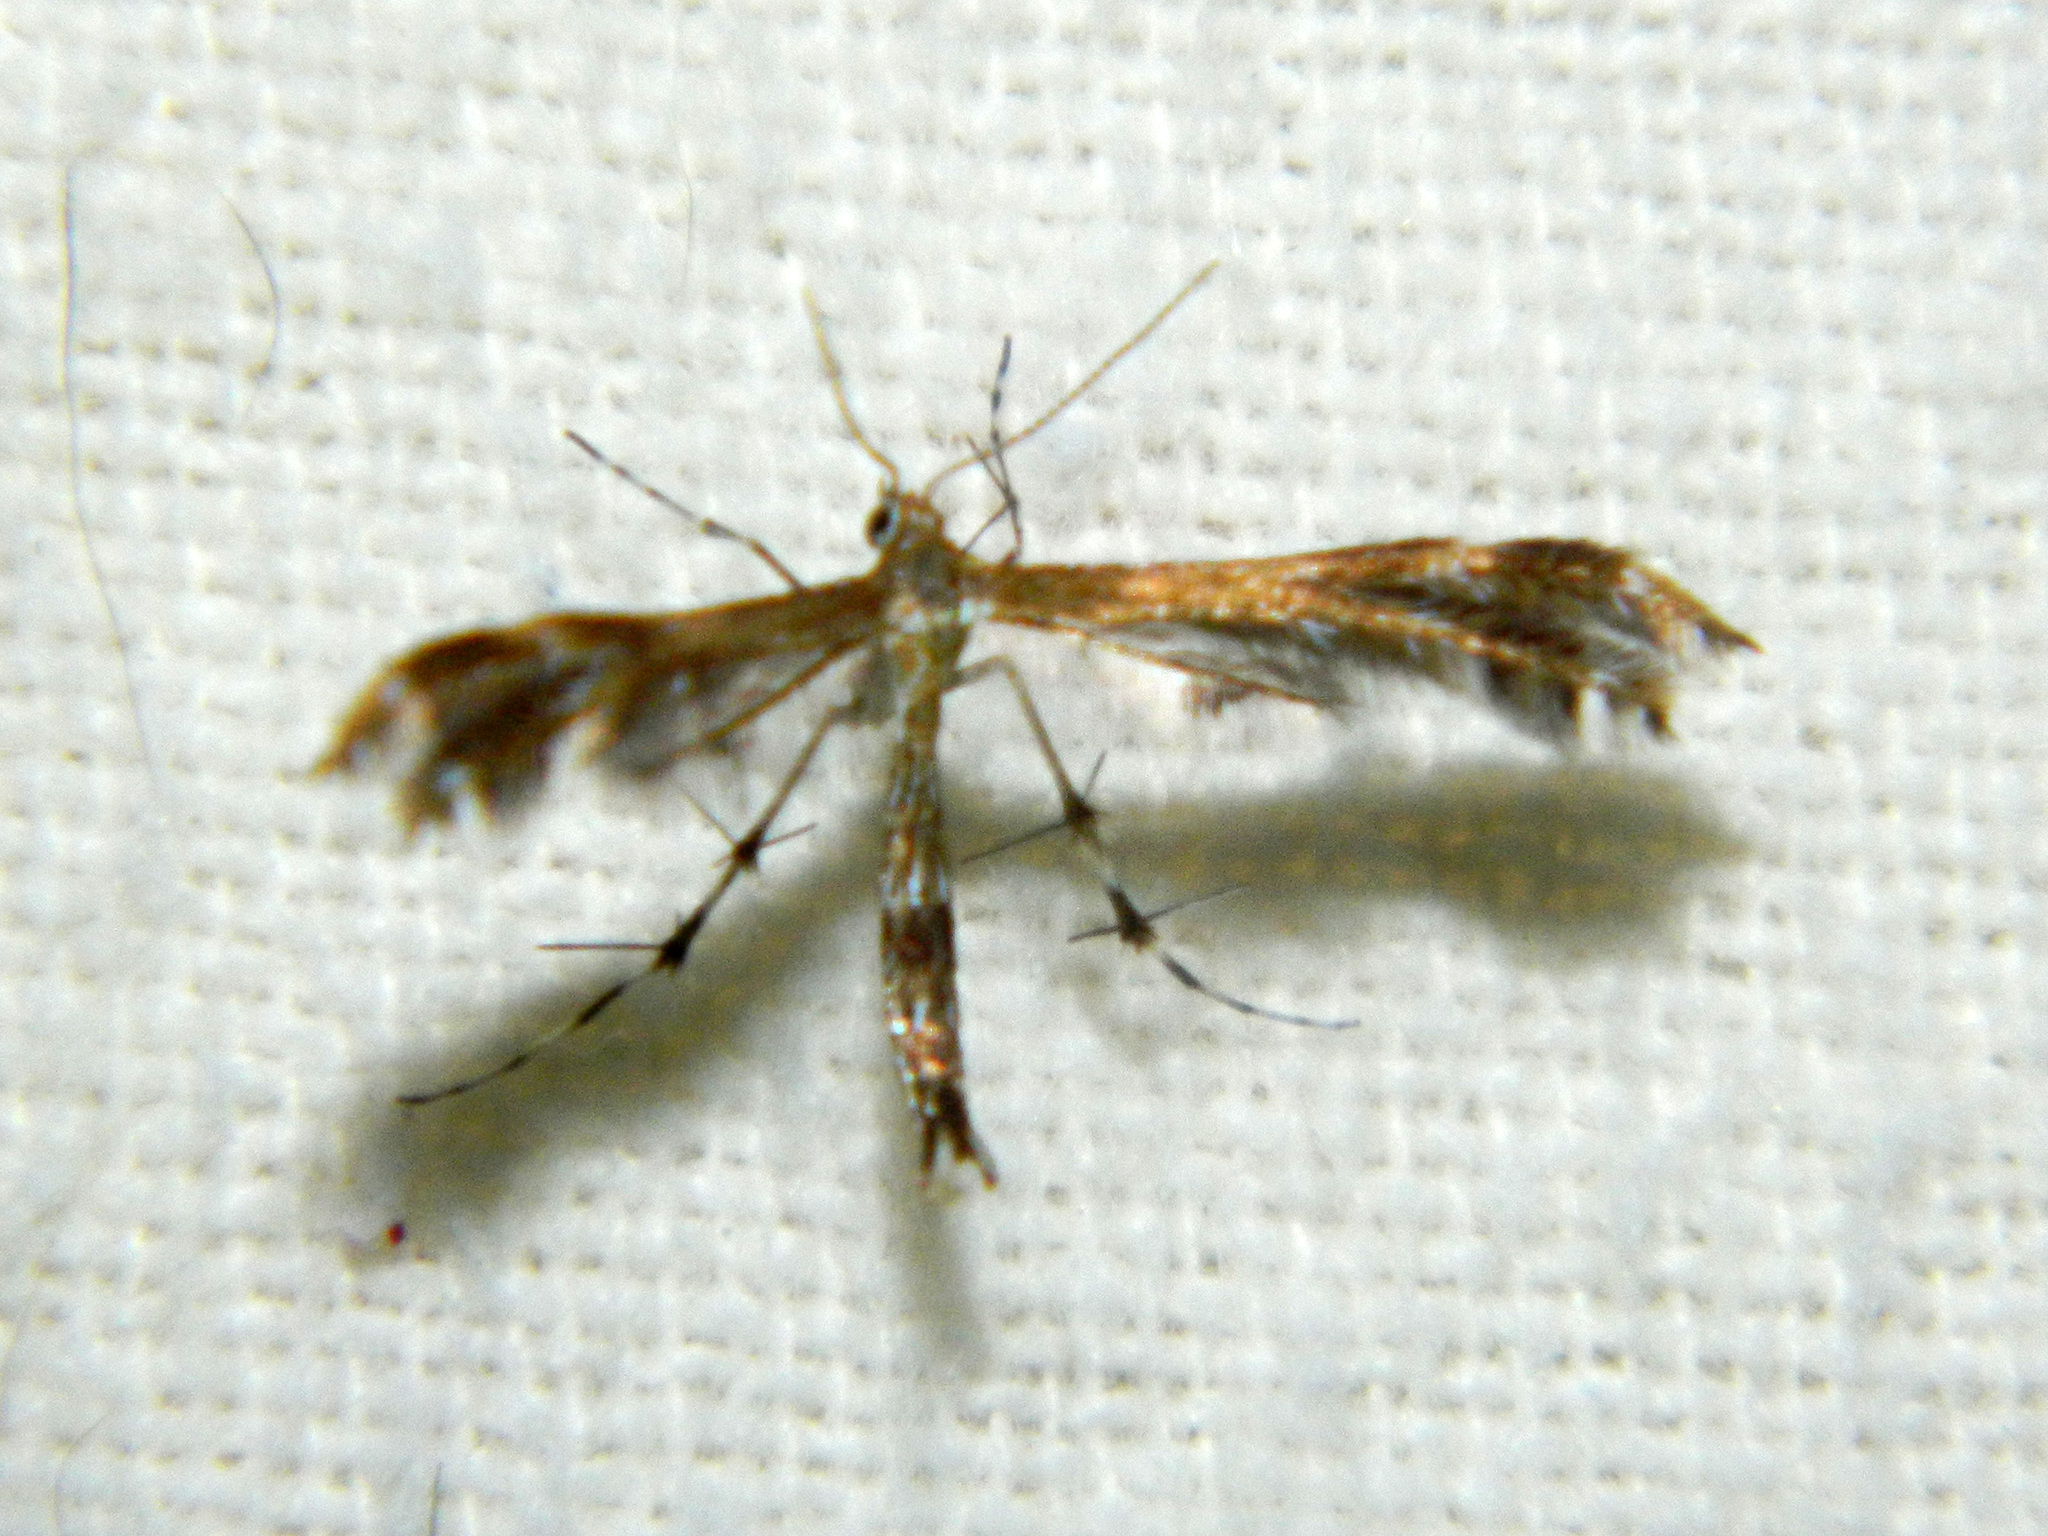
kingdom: Animalia
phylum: Arthropoda
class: Insecta
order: Lepidoptera
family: Pterophoridae
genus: Dejongia
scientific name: Dejongia lobidactylus
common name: Lobed plume moth
